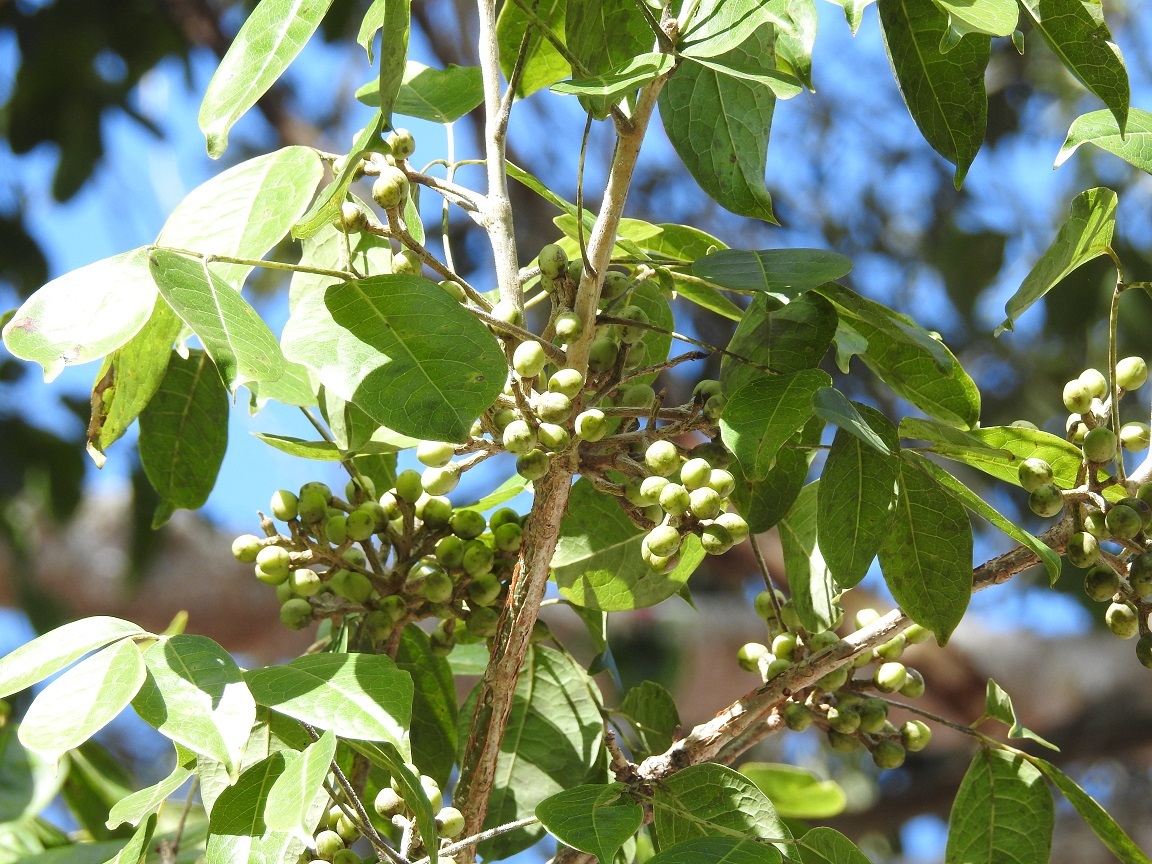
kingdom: Plantae
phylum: Tracheophyta
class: Magnoliopsida
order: Sapindales
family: Burseraceae
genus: Bursera
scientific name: Bursera simaruba
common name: Turpentine tree
